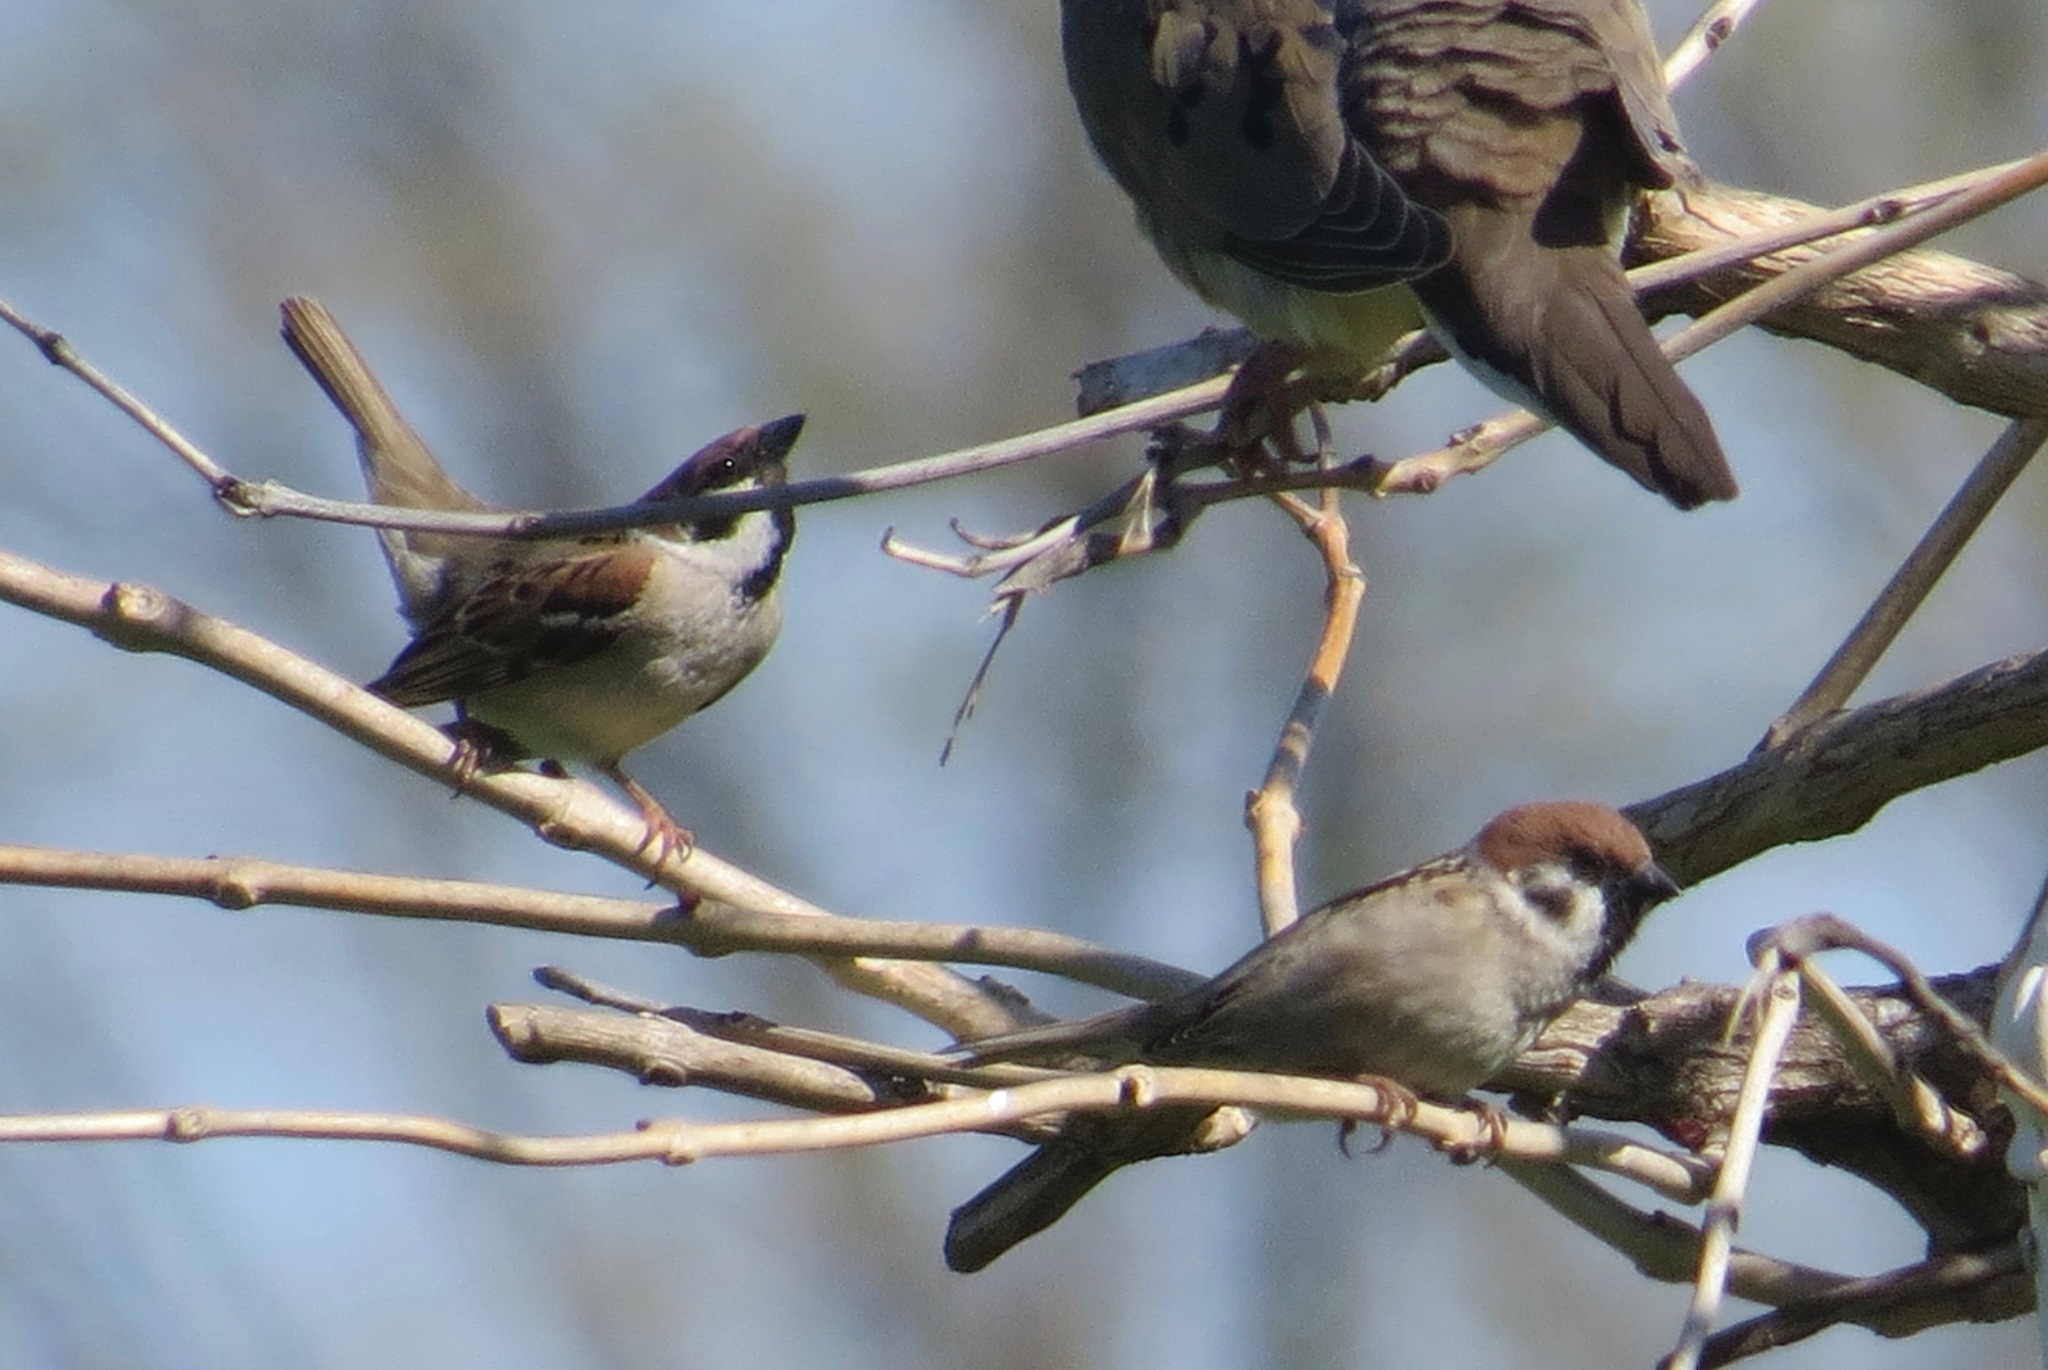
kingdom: Animalia
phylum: Chordata
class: Aves
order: Passeriformes
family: Passeridae
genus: Passer
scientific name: Passer montanus
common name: Eurasian tree sparrow
